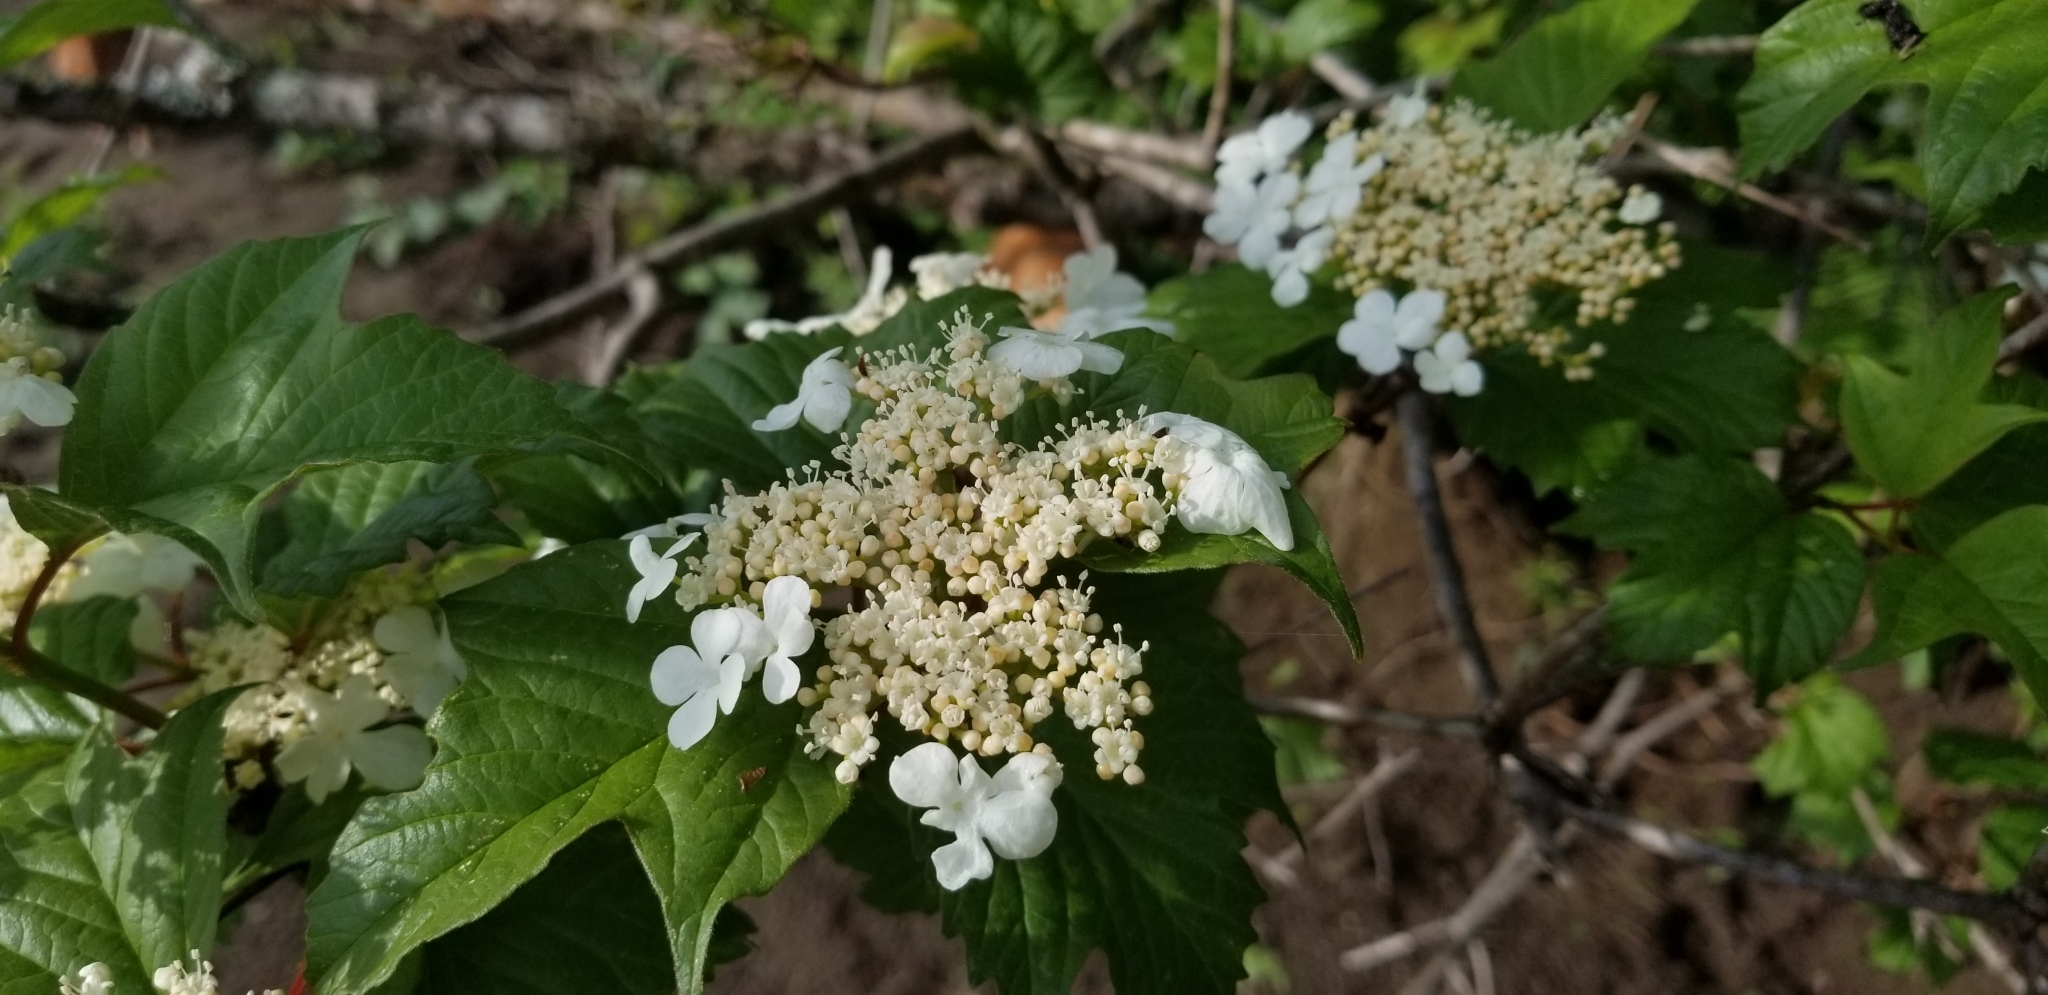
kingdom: Plantae
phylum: Tracheophyta
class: Magnoliopsida
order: Dipsacales
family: Viburnaceae
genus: Viburnum
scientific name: Viburnum opulus
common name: Guelder-rose
